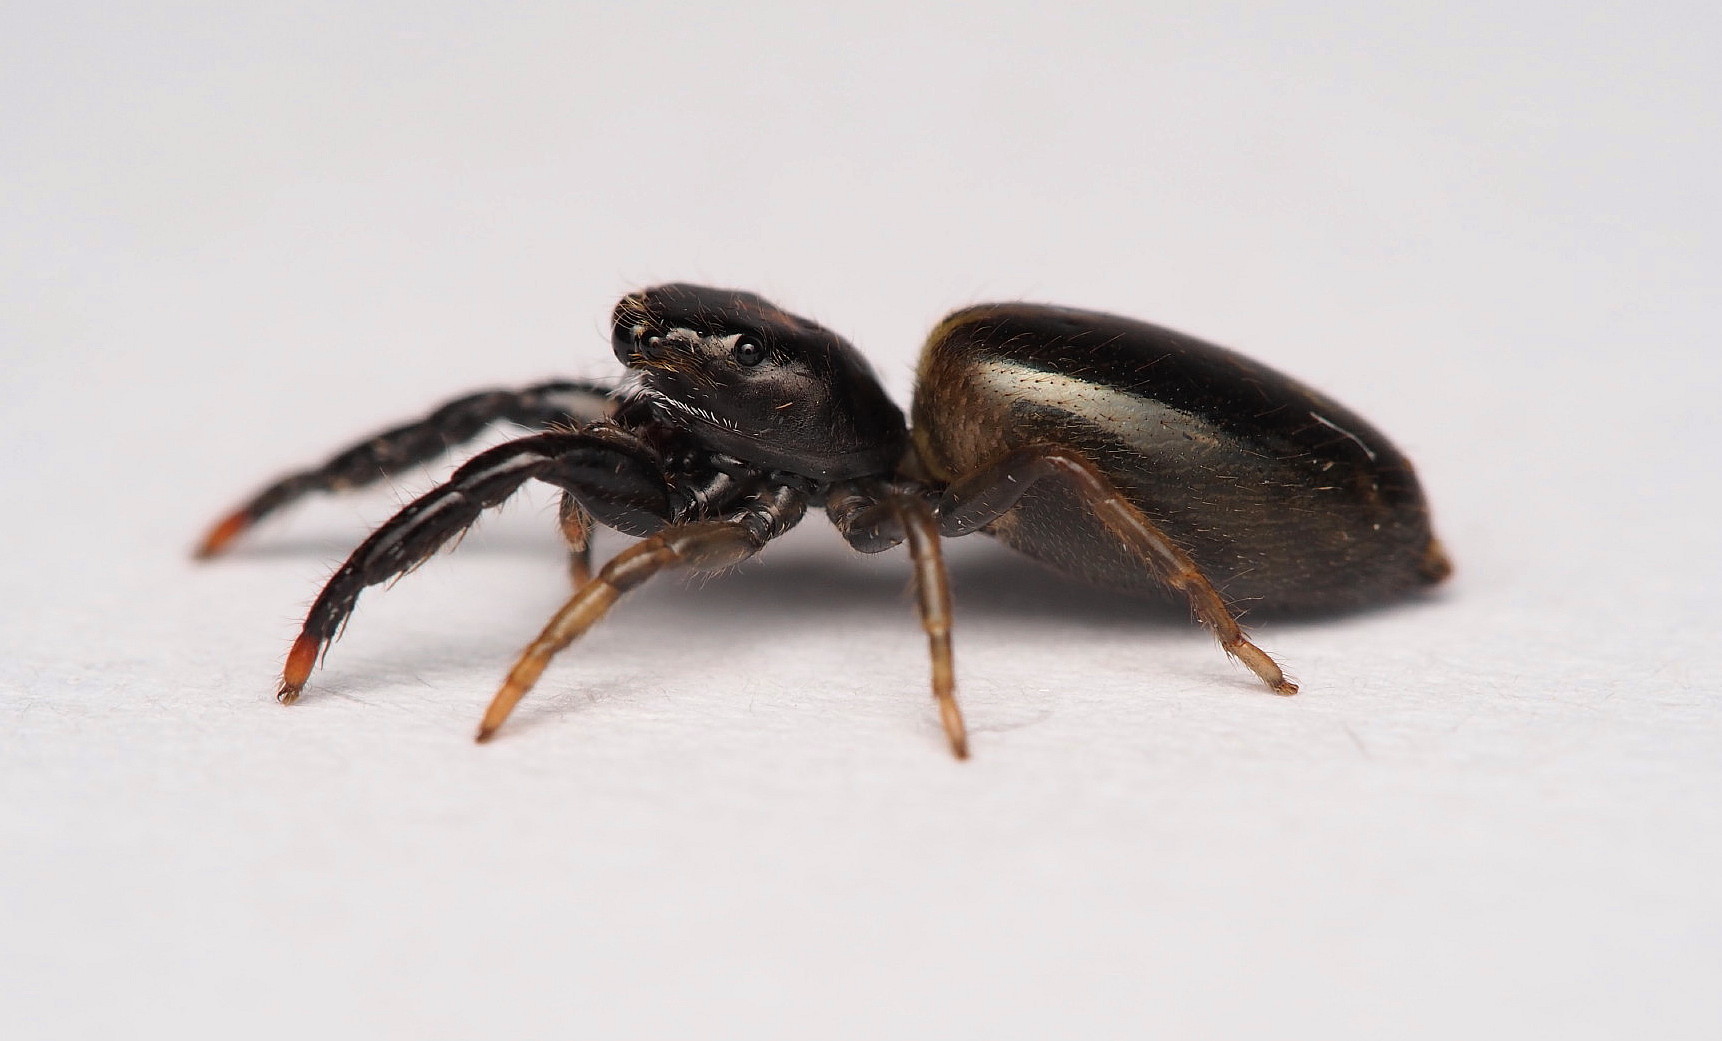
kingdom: Animalia
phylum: Arthropoda
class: Arachnida
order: Araneae
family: Salticidae
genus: Trite
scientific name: Trite planiceps
